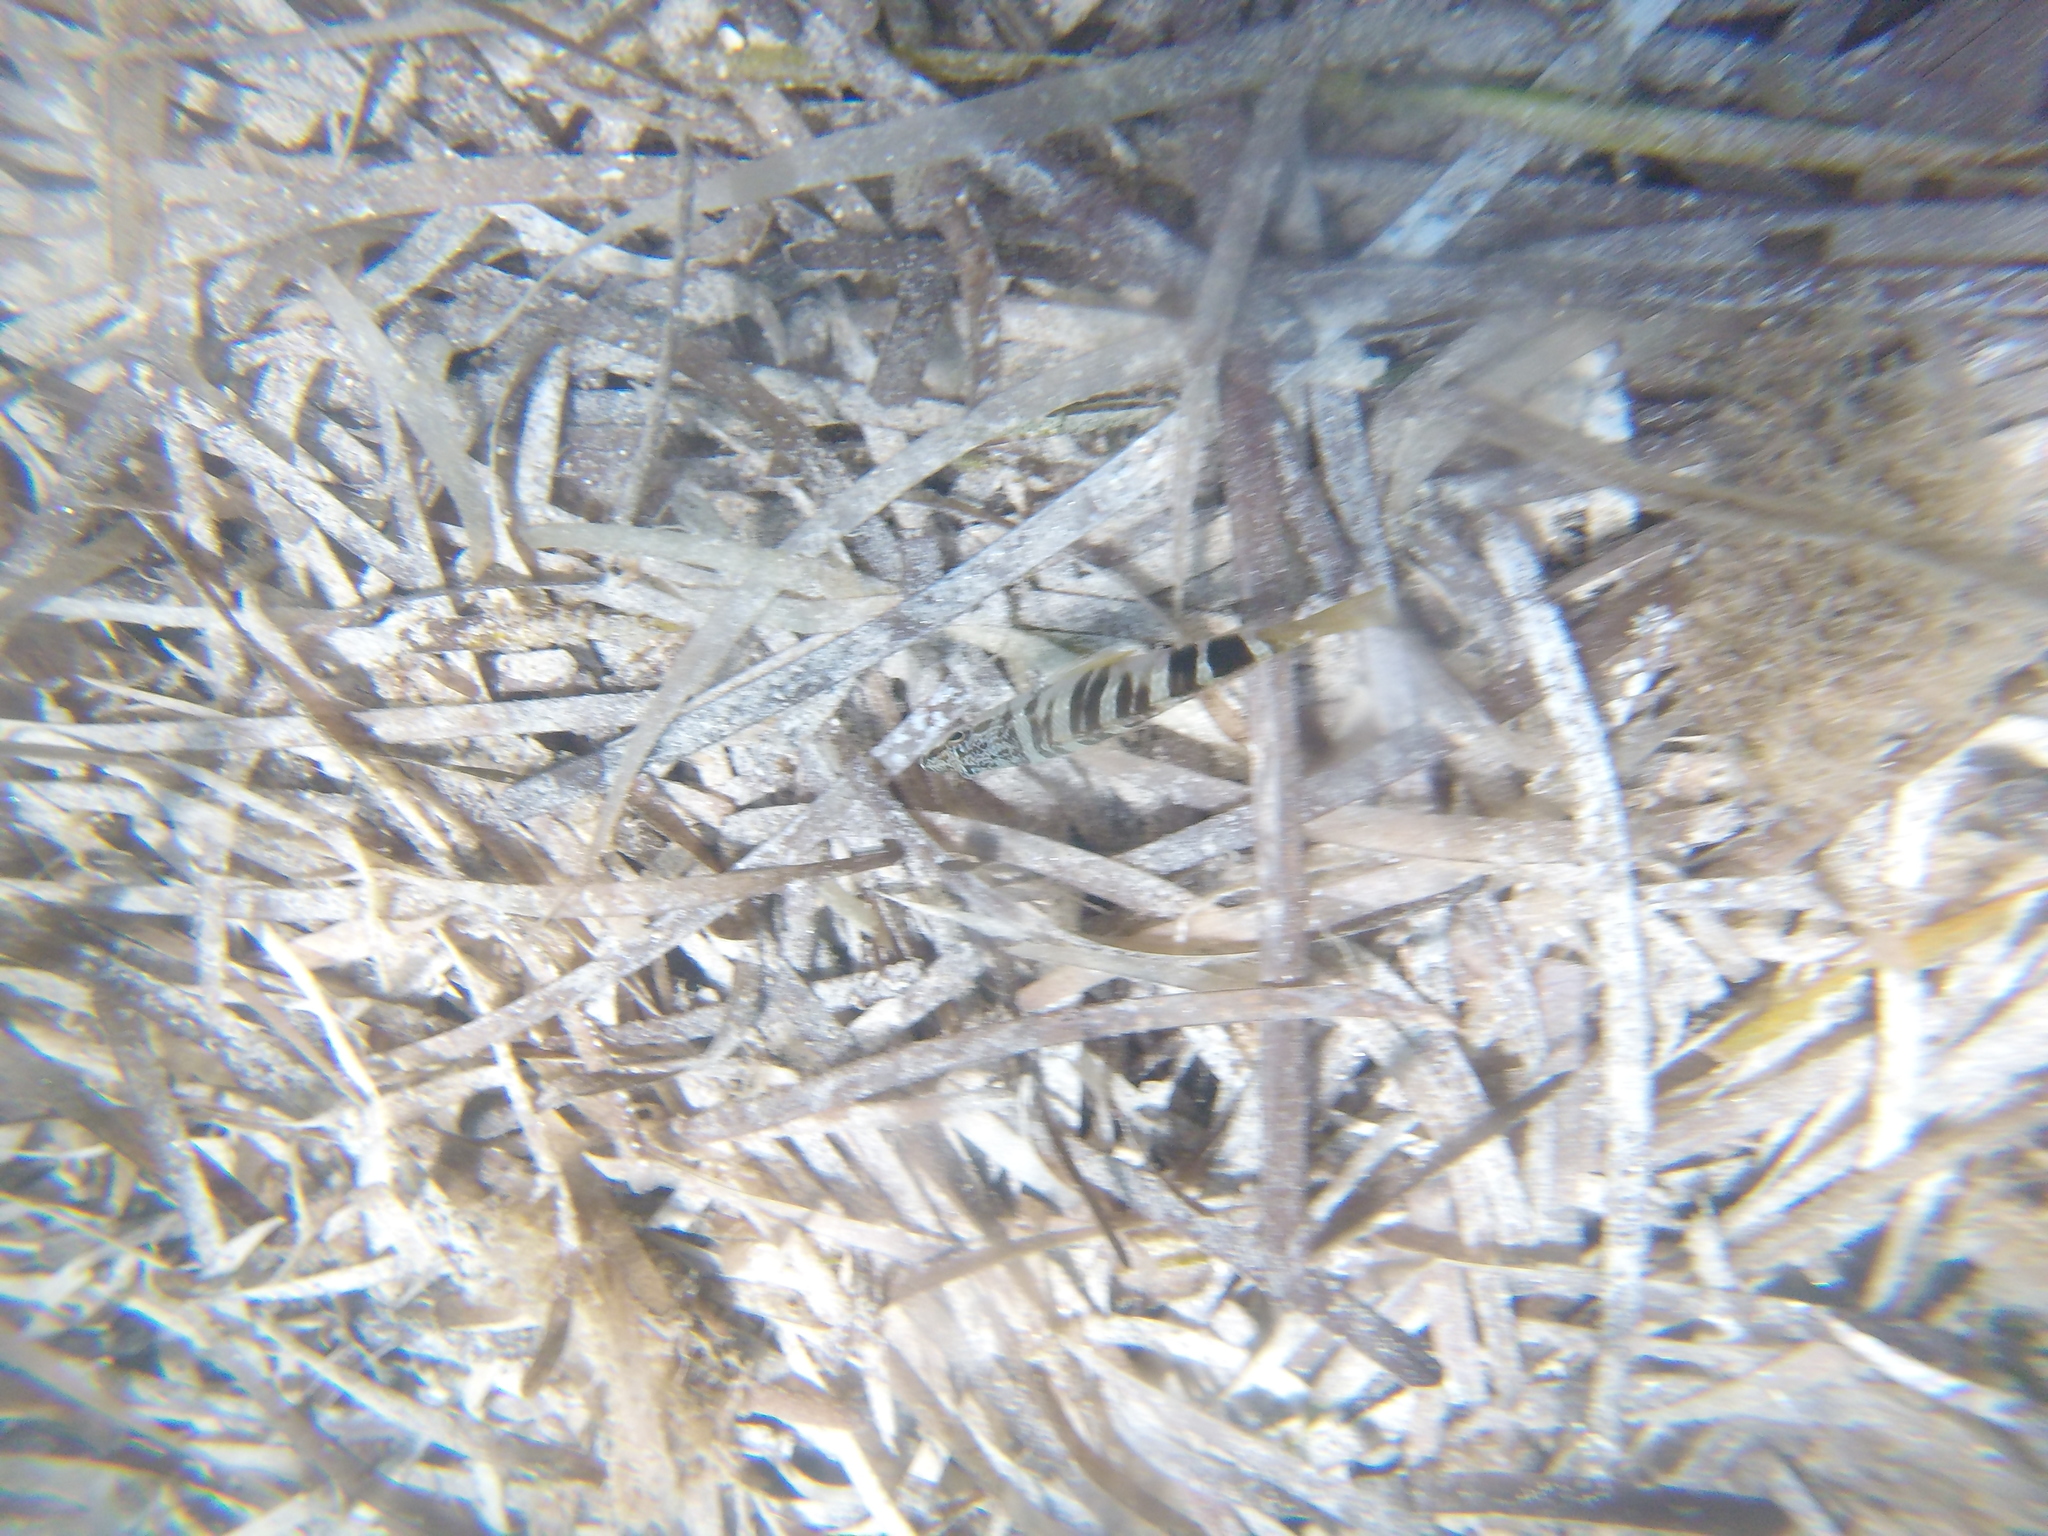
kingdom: Animalia
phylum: Chordata
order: Perciformes
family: Serranidae
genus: Serranus
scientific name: Serranus scriba
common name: Painted comber
